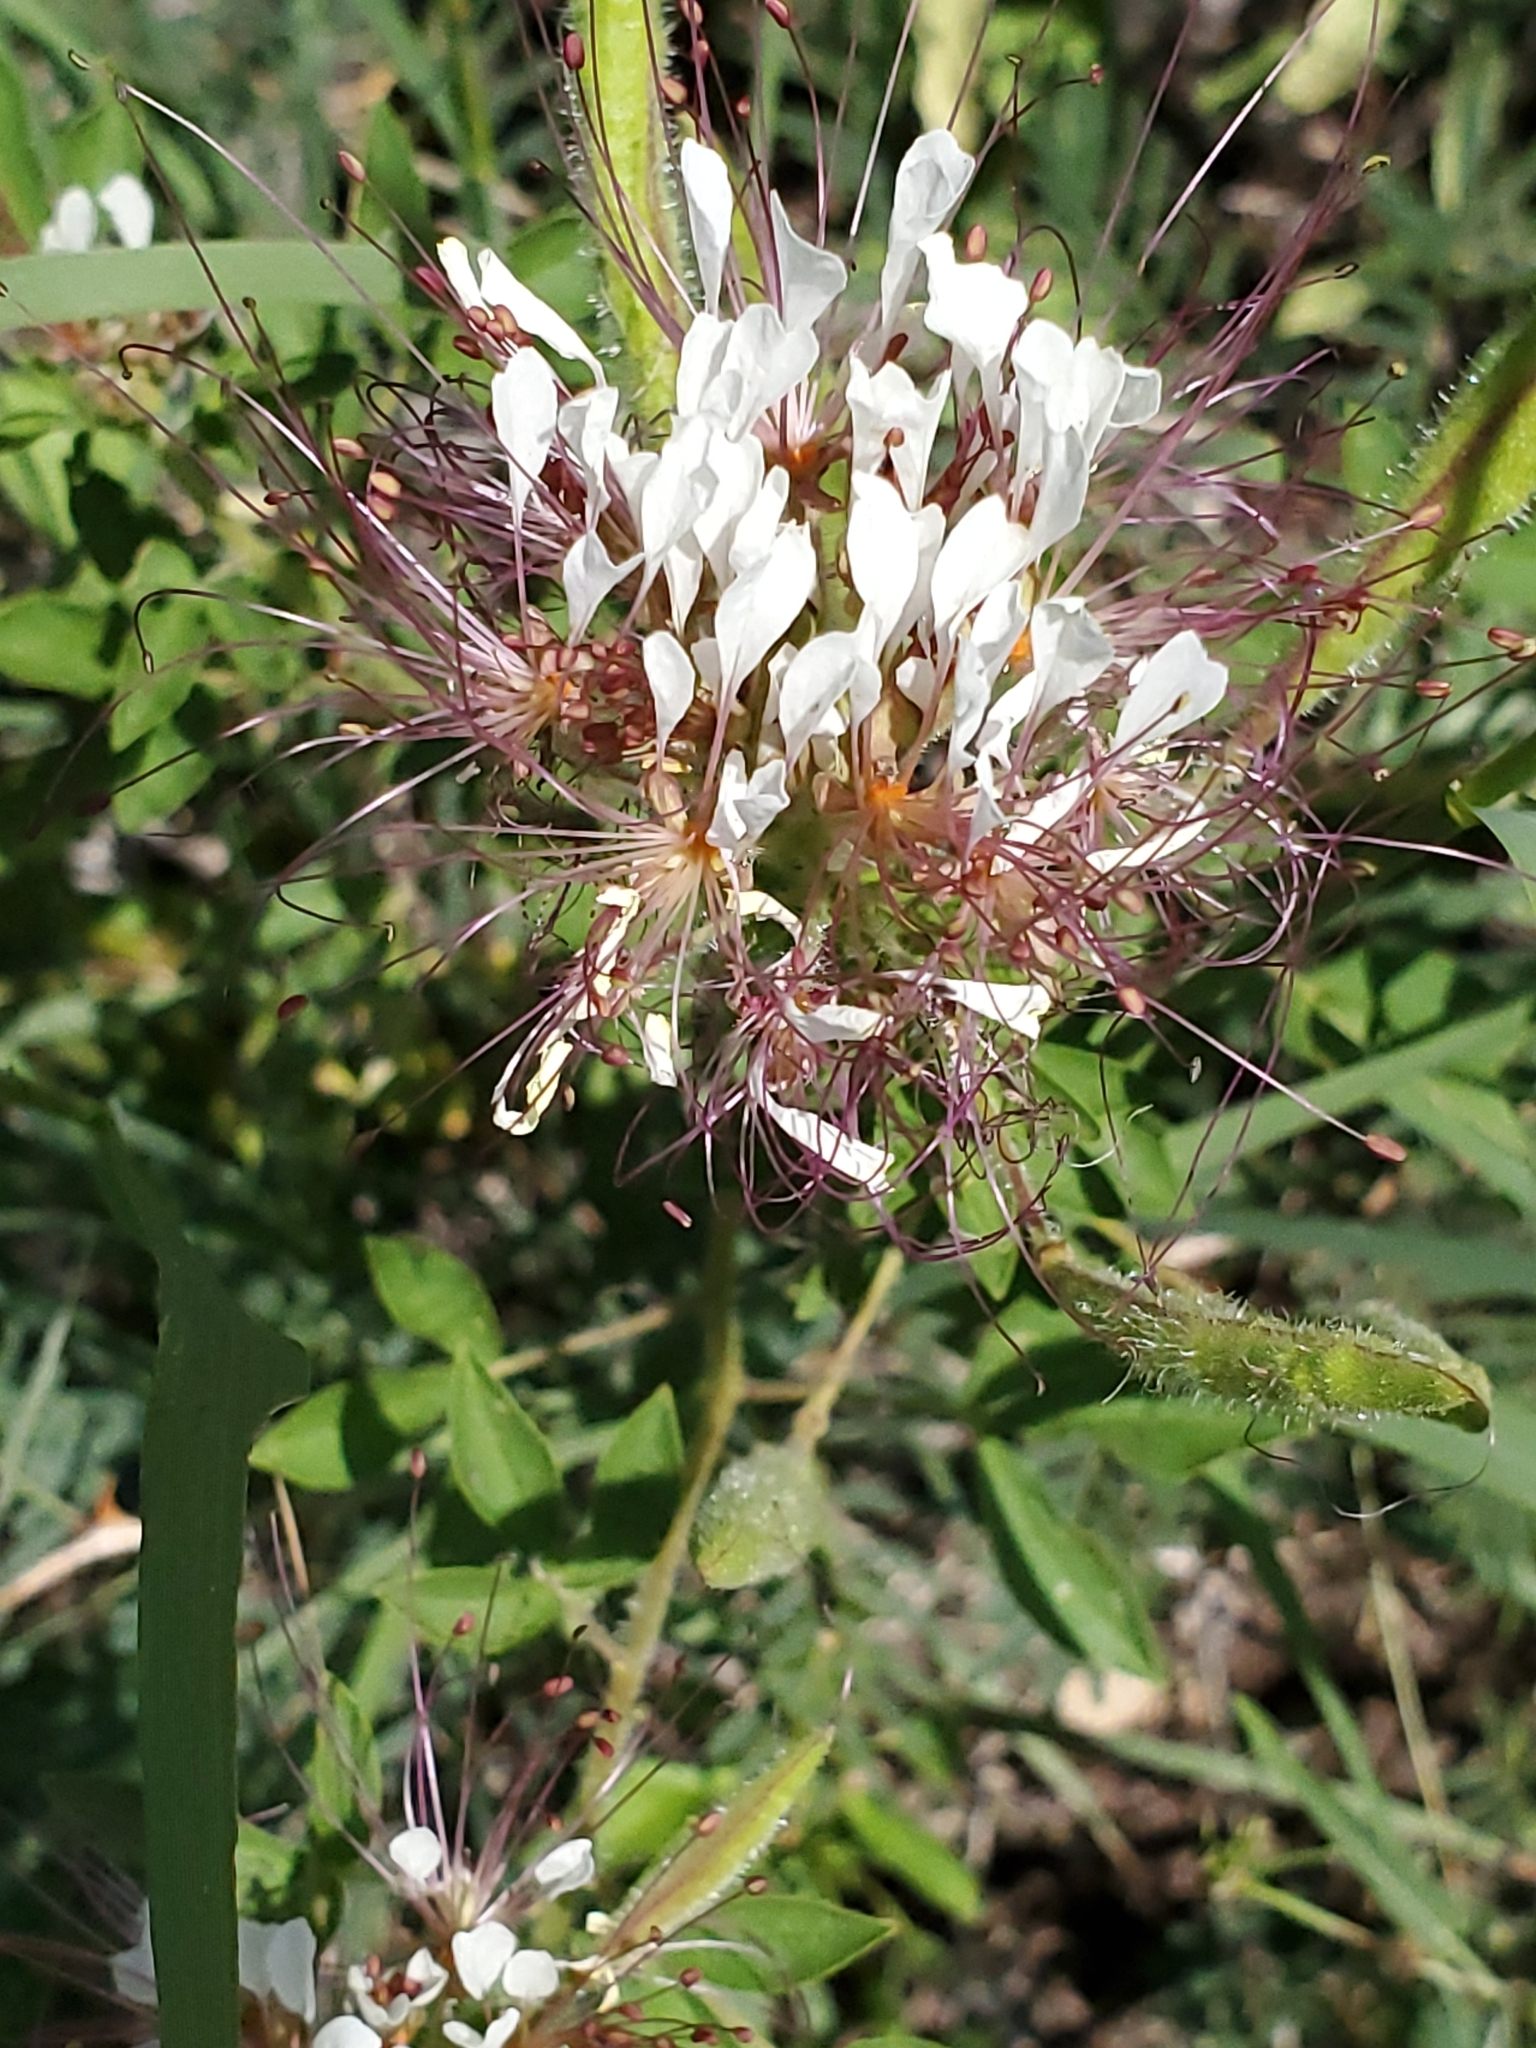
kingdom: Plantae
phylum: Tracheophyta
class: Magnoliopsida
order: Brassicales
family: Cleomaceae
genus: Polanisia
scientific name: Polanisia dodecandra
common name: Clammyweed
